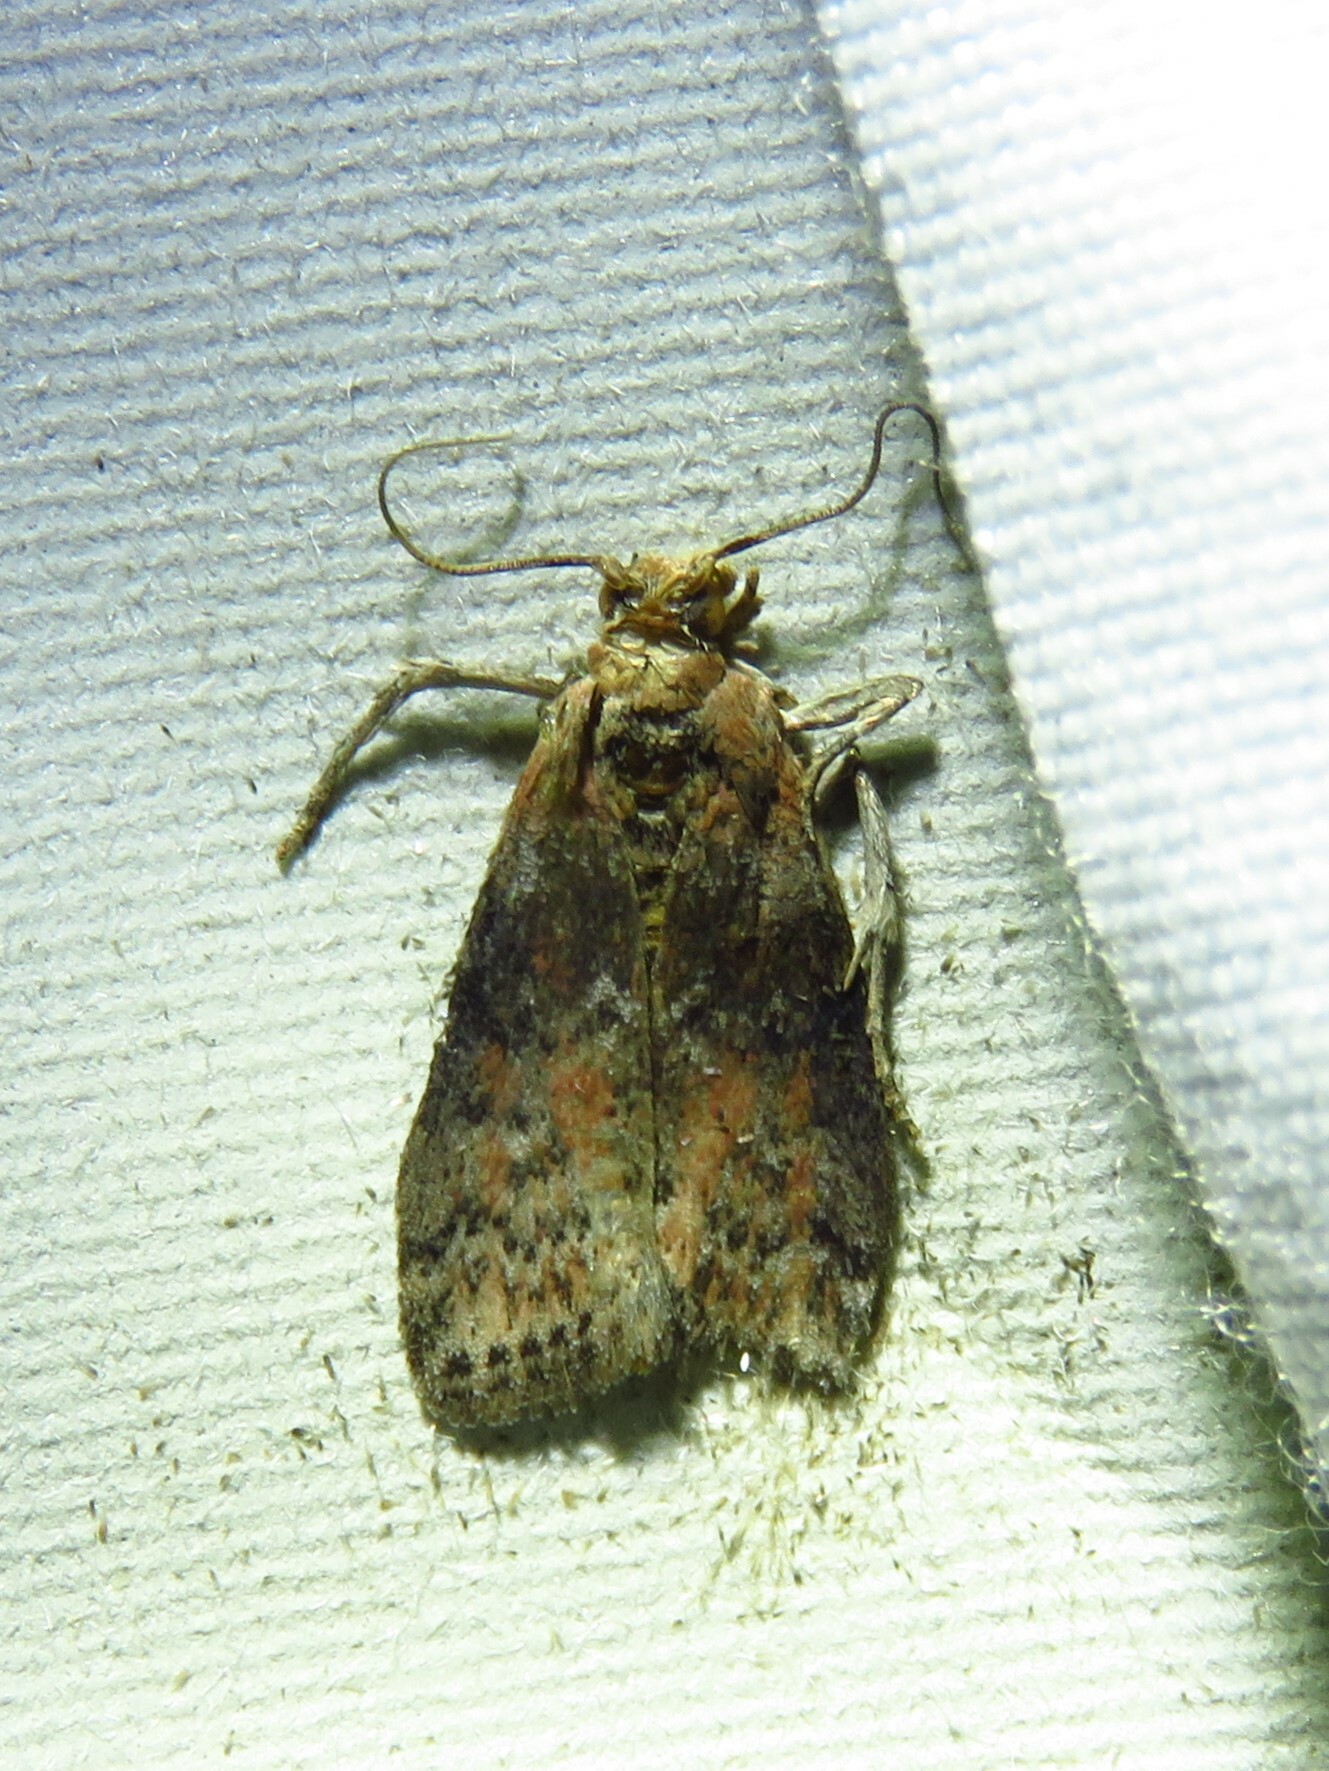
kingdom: Animalia
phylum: Arthropoda
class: Insecta
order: Lepidoptera
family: Pyralidae
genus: Sciota
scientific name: Sciota celtidella
